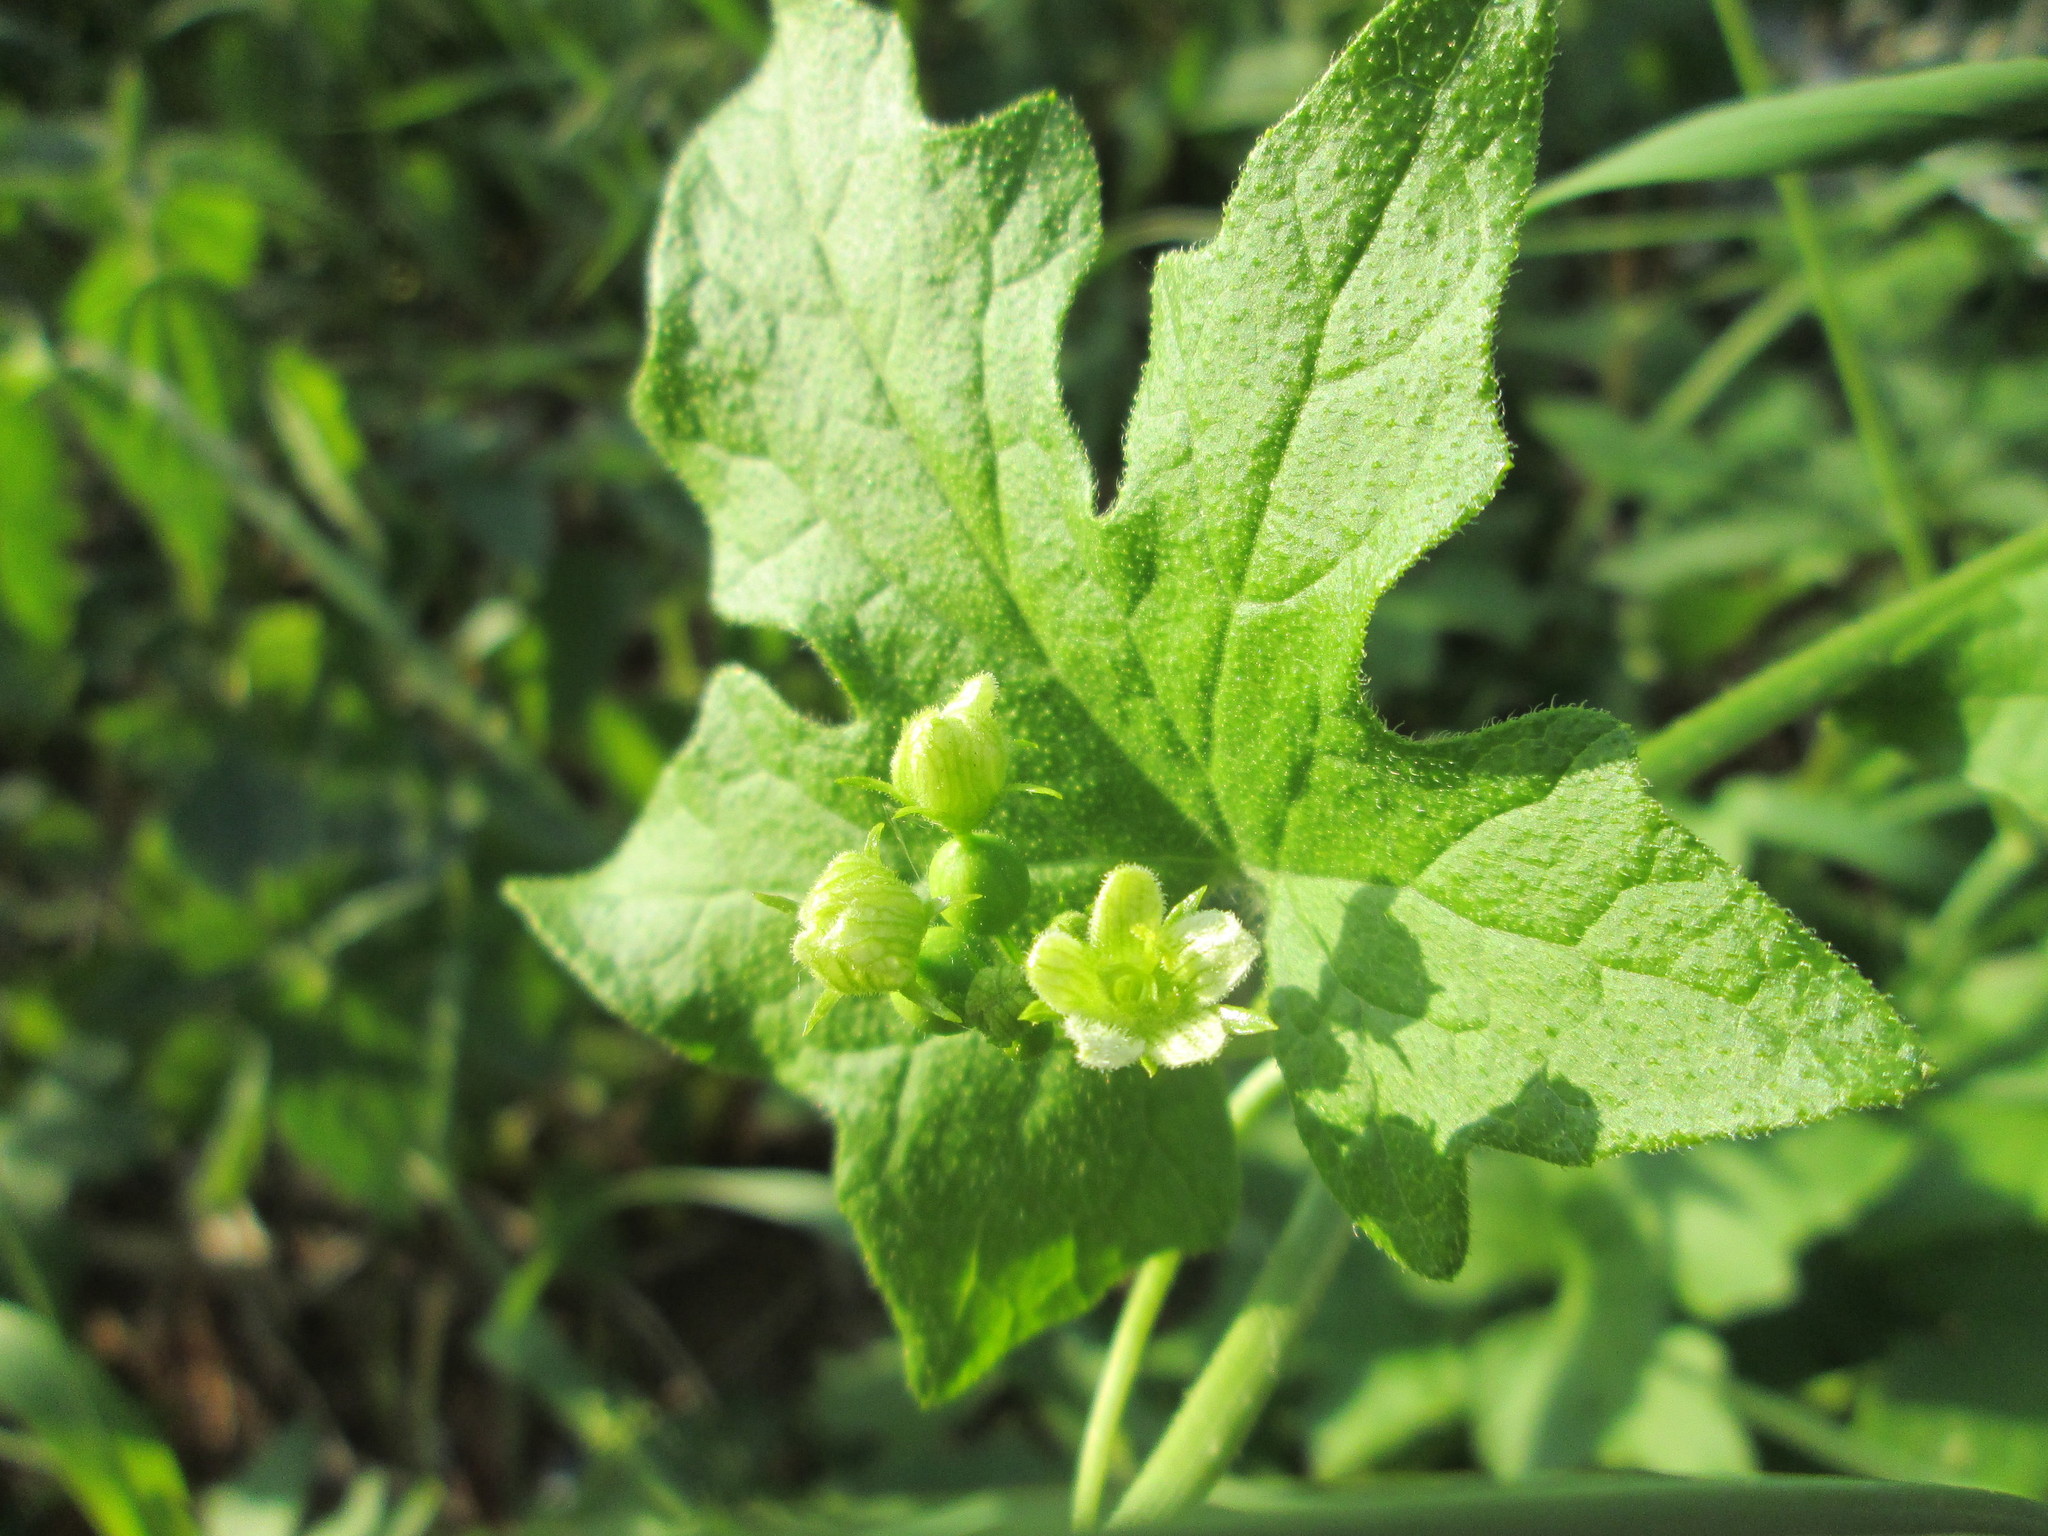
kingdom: Plantae
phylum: Tracheophyta
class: Magnoliopsida
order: Cucurbitales
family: Cucurbitaceae
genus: Bryonia
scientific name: Bryonia dioica
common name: White bryony
